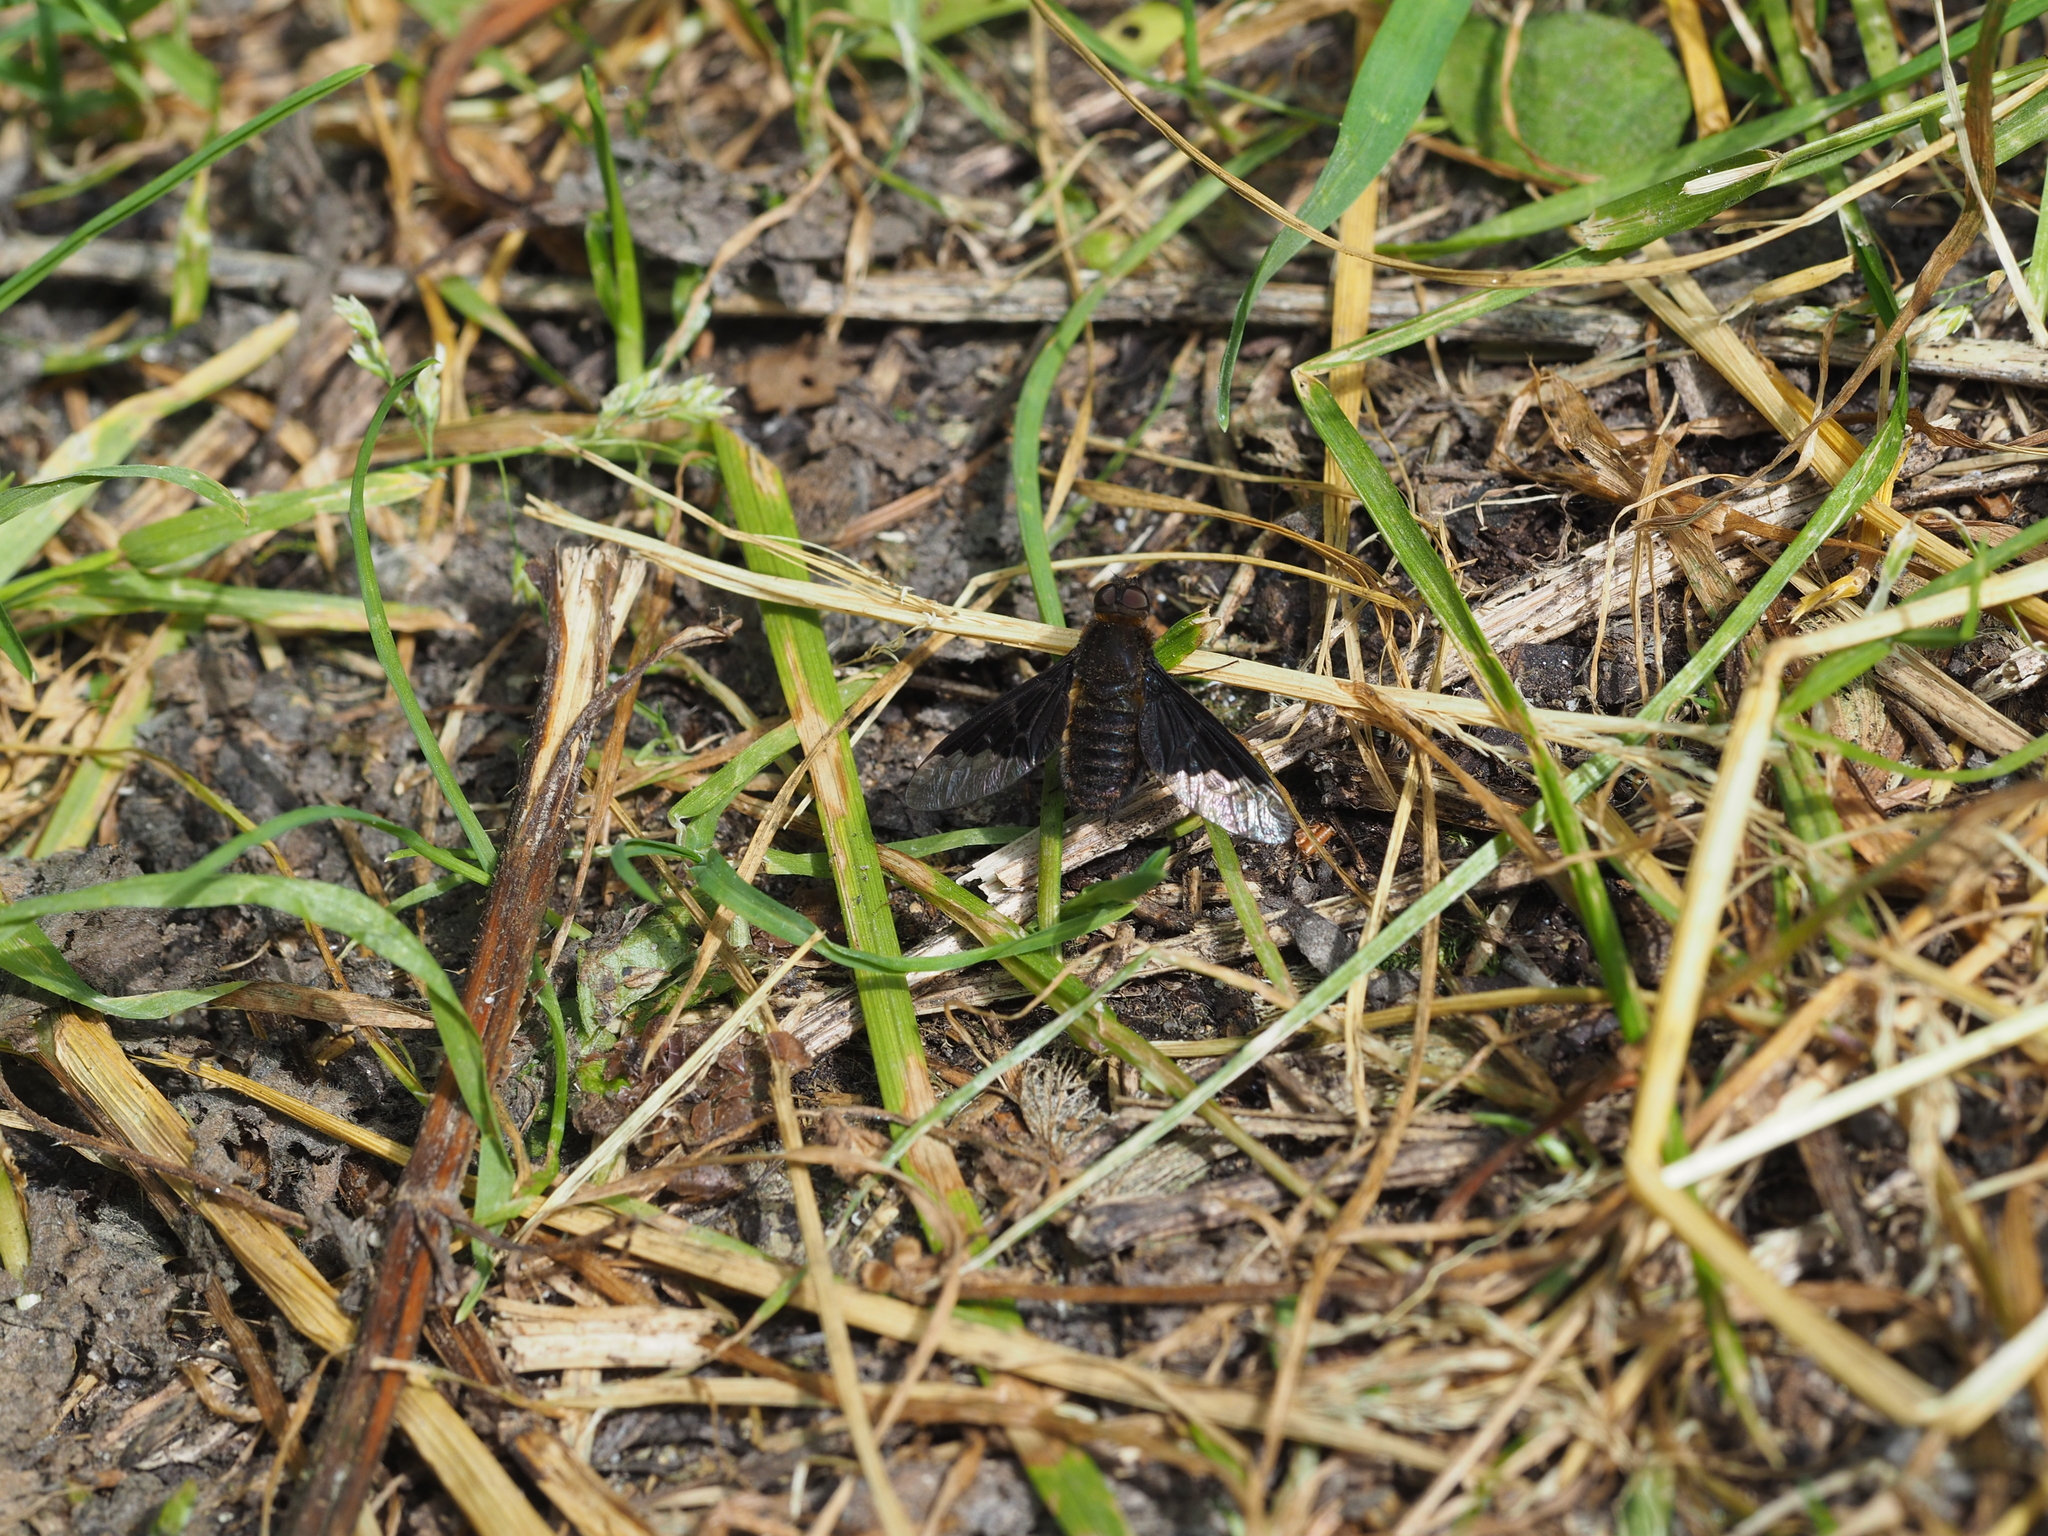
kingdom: Animalia
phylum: Arthropoda
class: Insecta
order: Diptera
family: Bombyliidae
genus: Hemipenthes
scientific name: Hemipenthes morio
